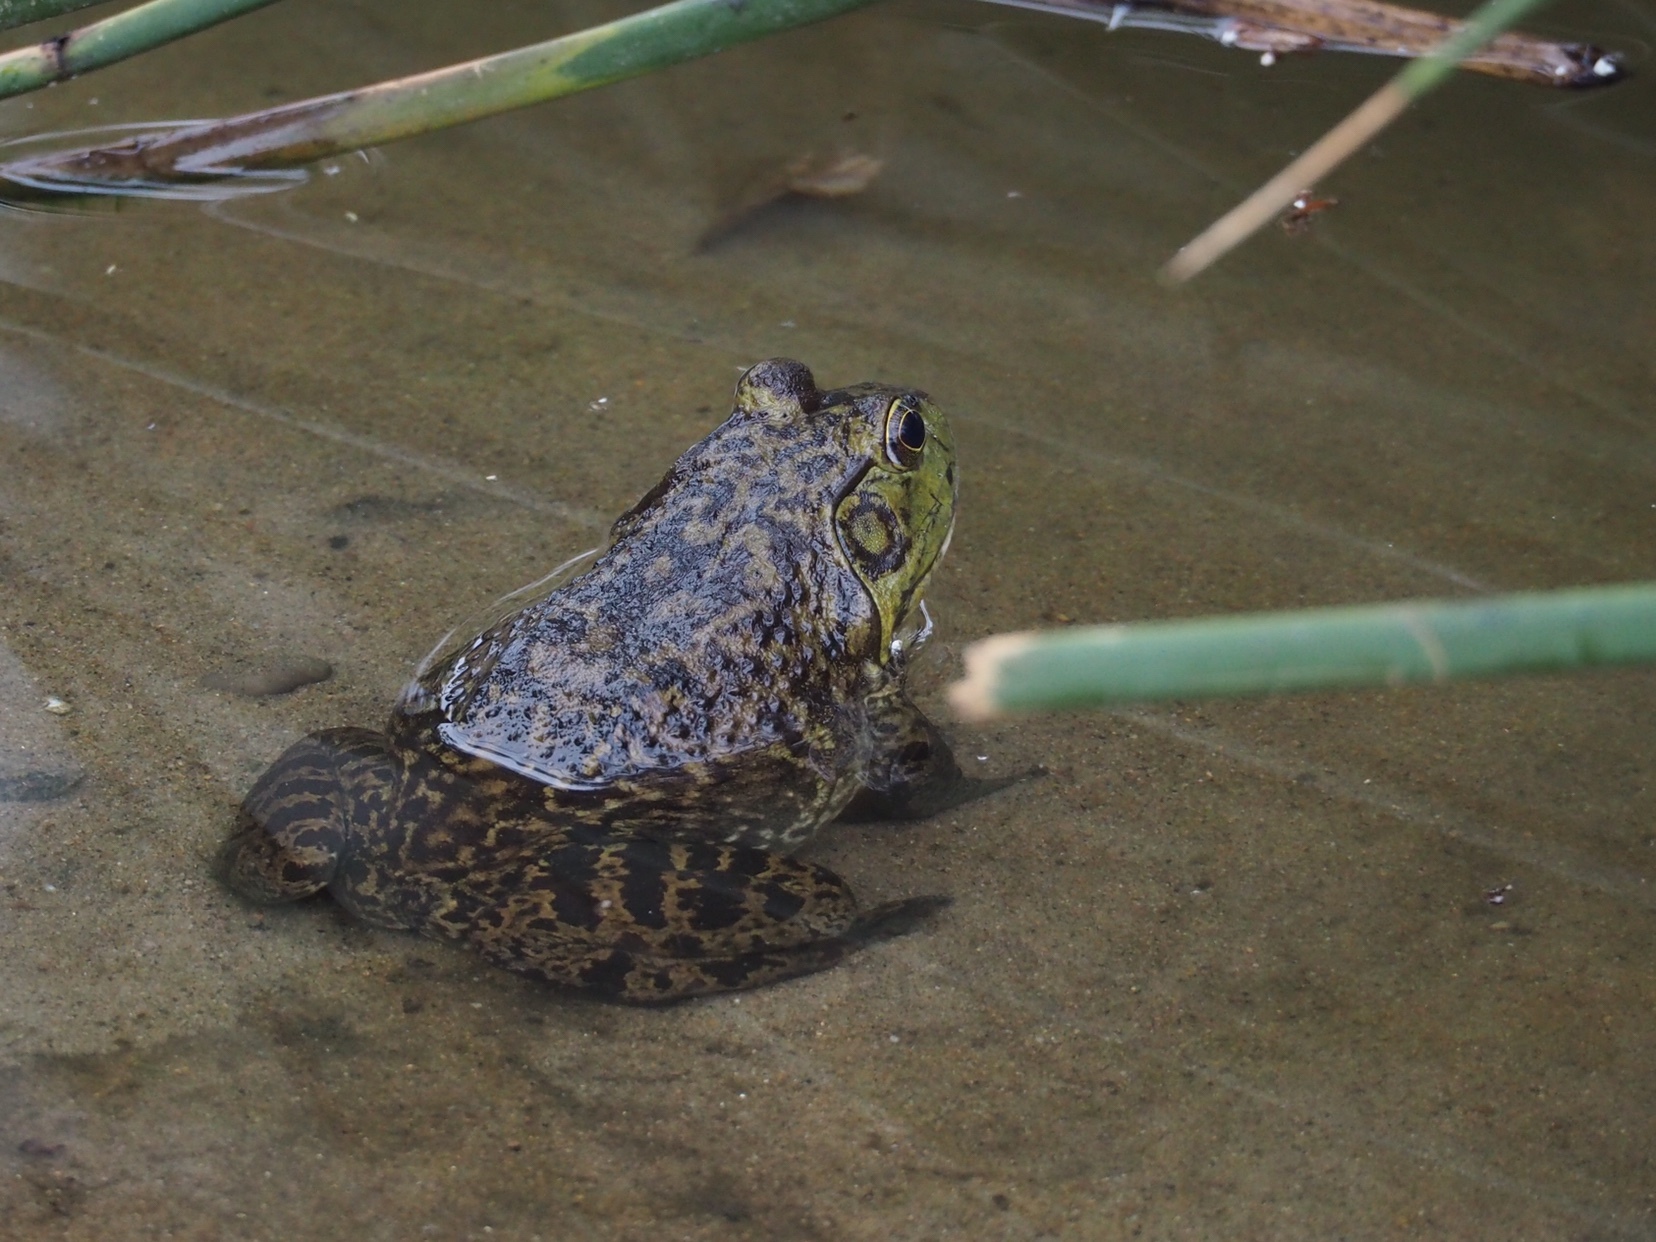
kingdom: Animalia
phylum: Chordata
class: Amphibia
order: Anura
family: Ranidae
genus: Lithobates
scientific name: Lithobates catesbeianus
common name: American bullfrog
